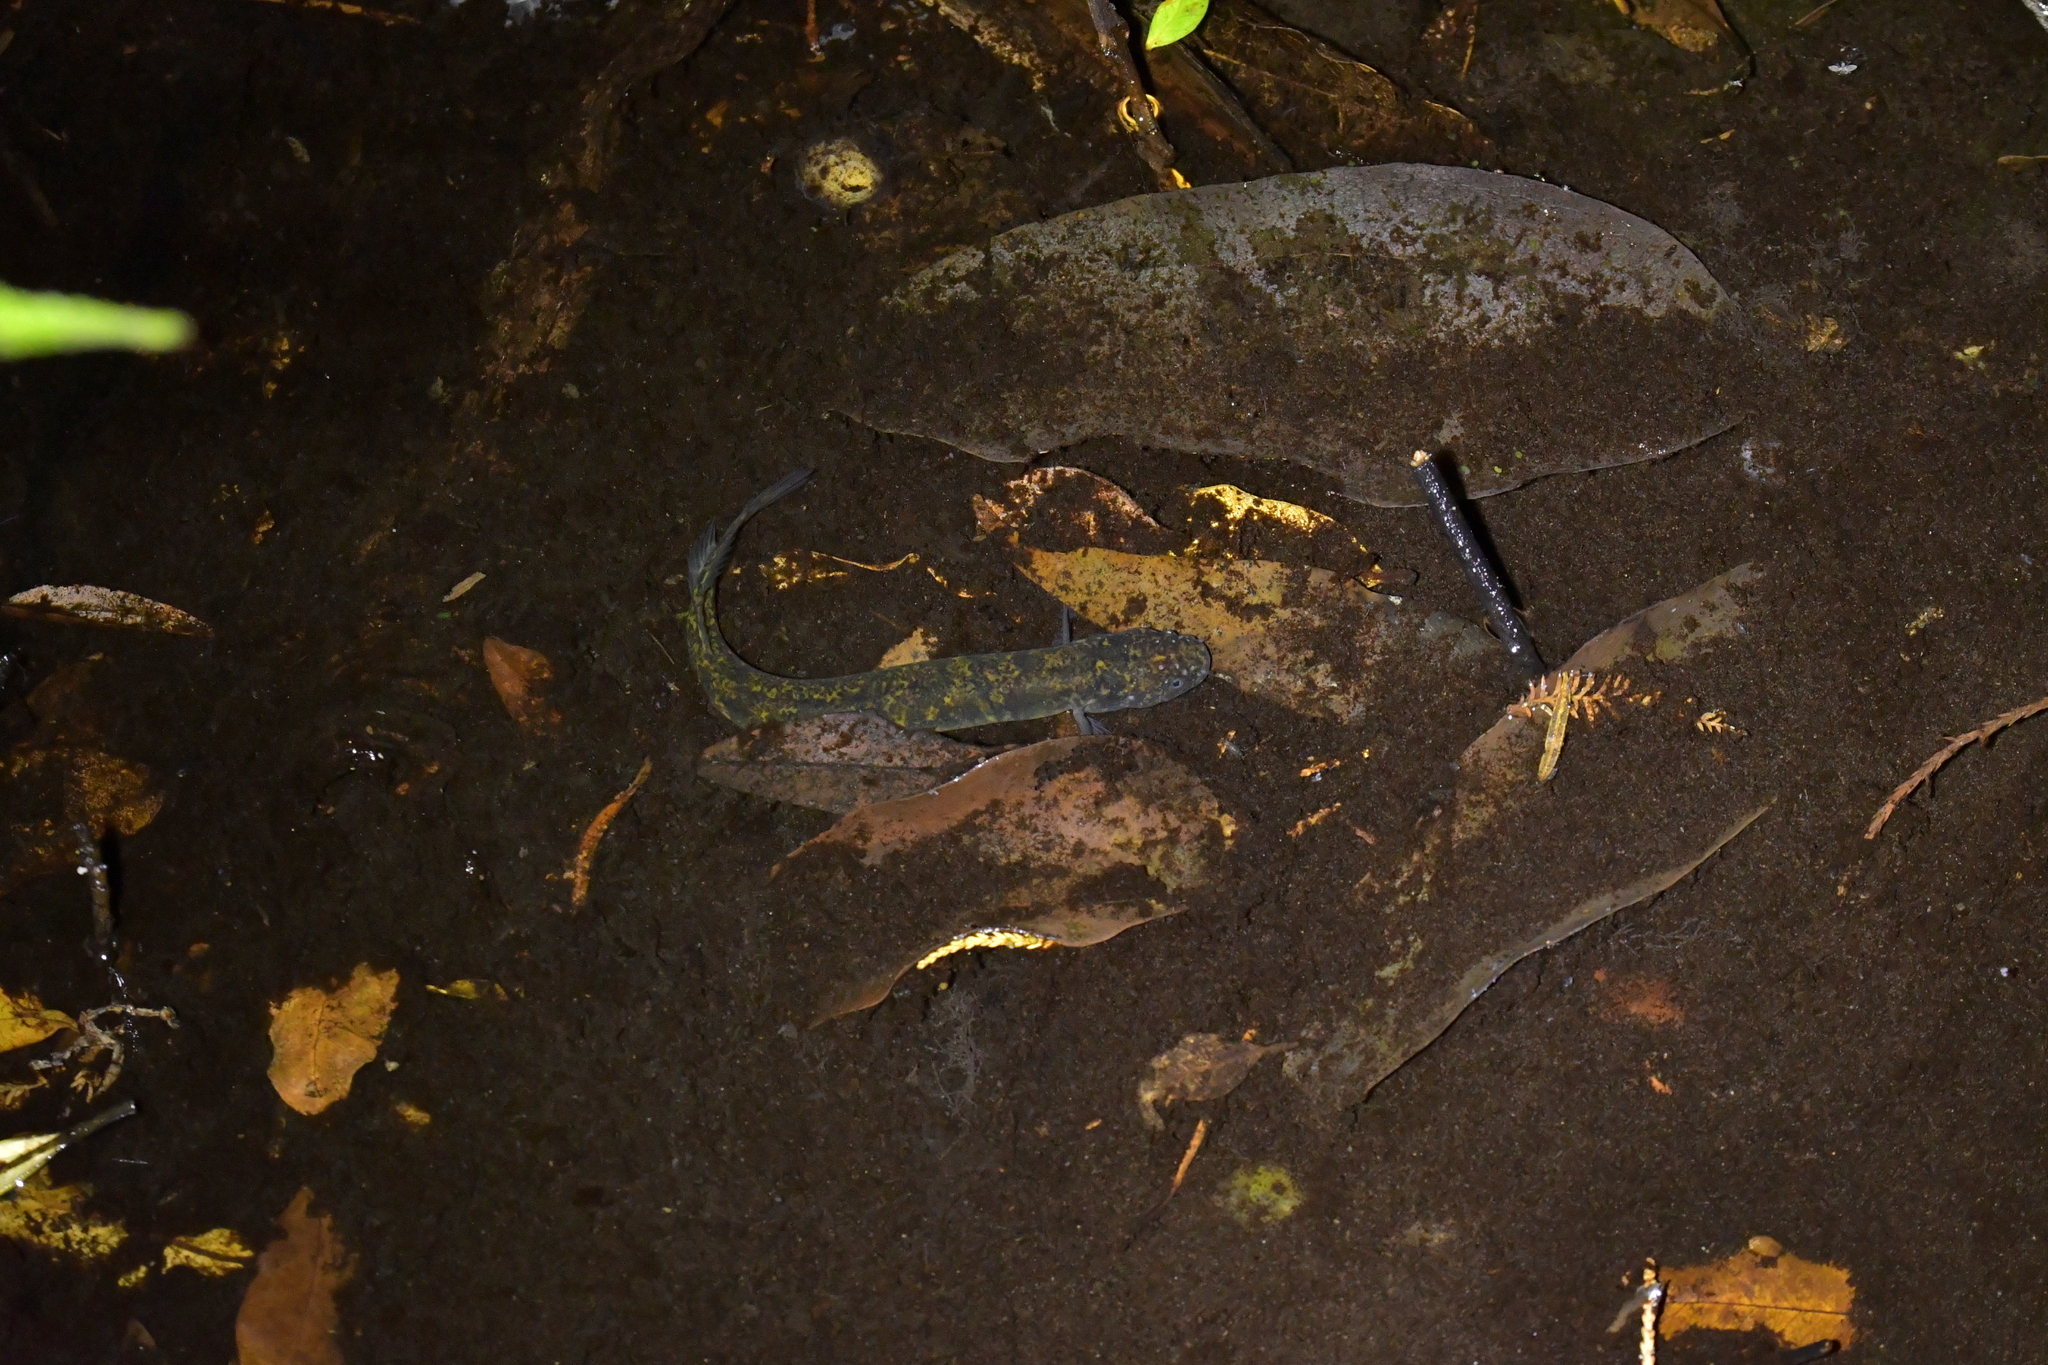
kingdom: Animalia
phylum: Chordata
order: Osmeriformes
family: Galaxiidae
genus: Neochanna
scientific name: Neochanna apoda
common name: Brown mudfish
